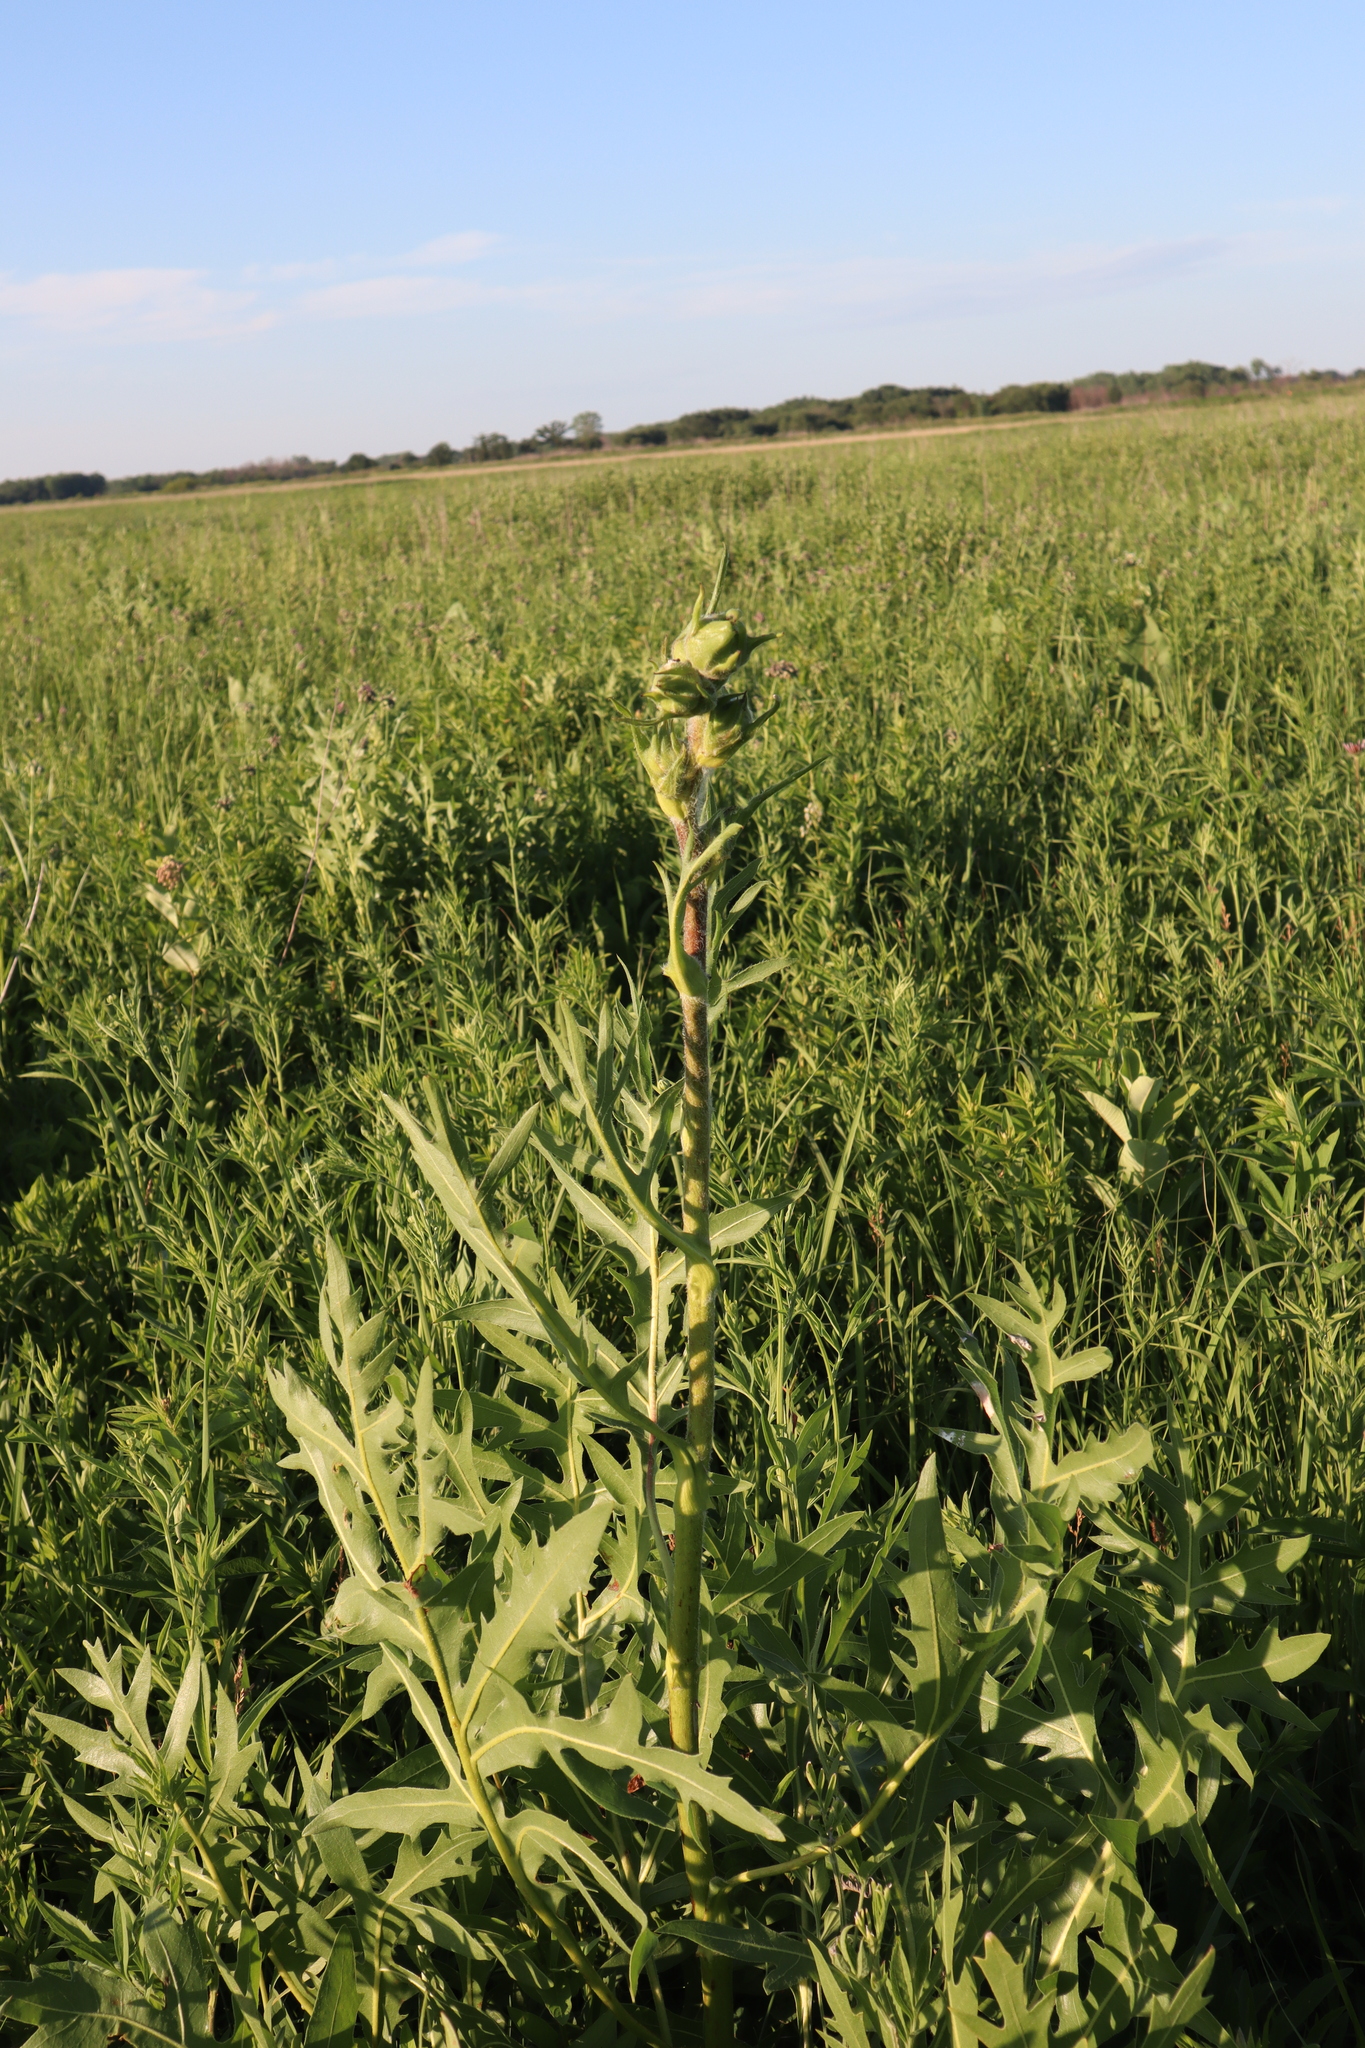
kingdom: Plantae
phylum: Tracheophyta
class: Magnoliopsida
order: Asterales
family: Asteraceae
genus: Silphium
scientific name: Silphium laciniatum
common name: Polarplant
